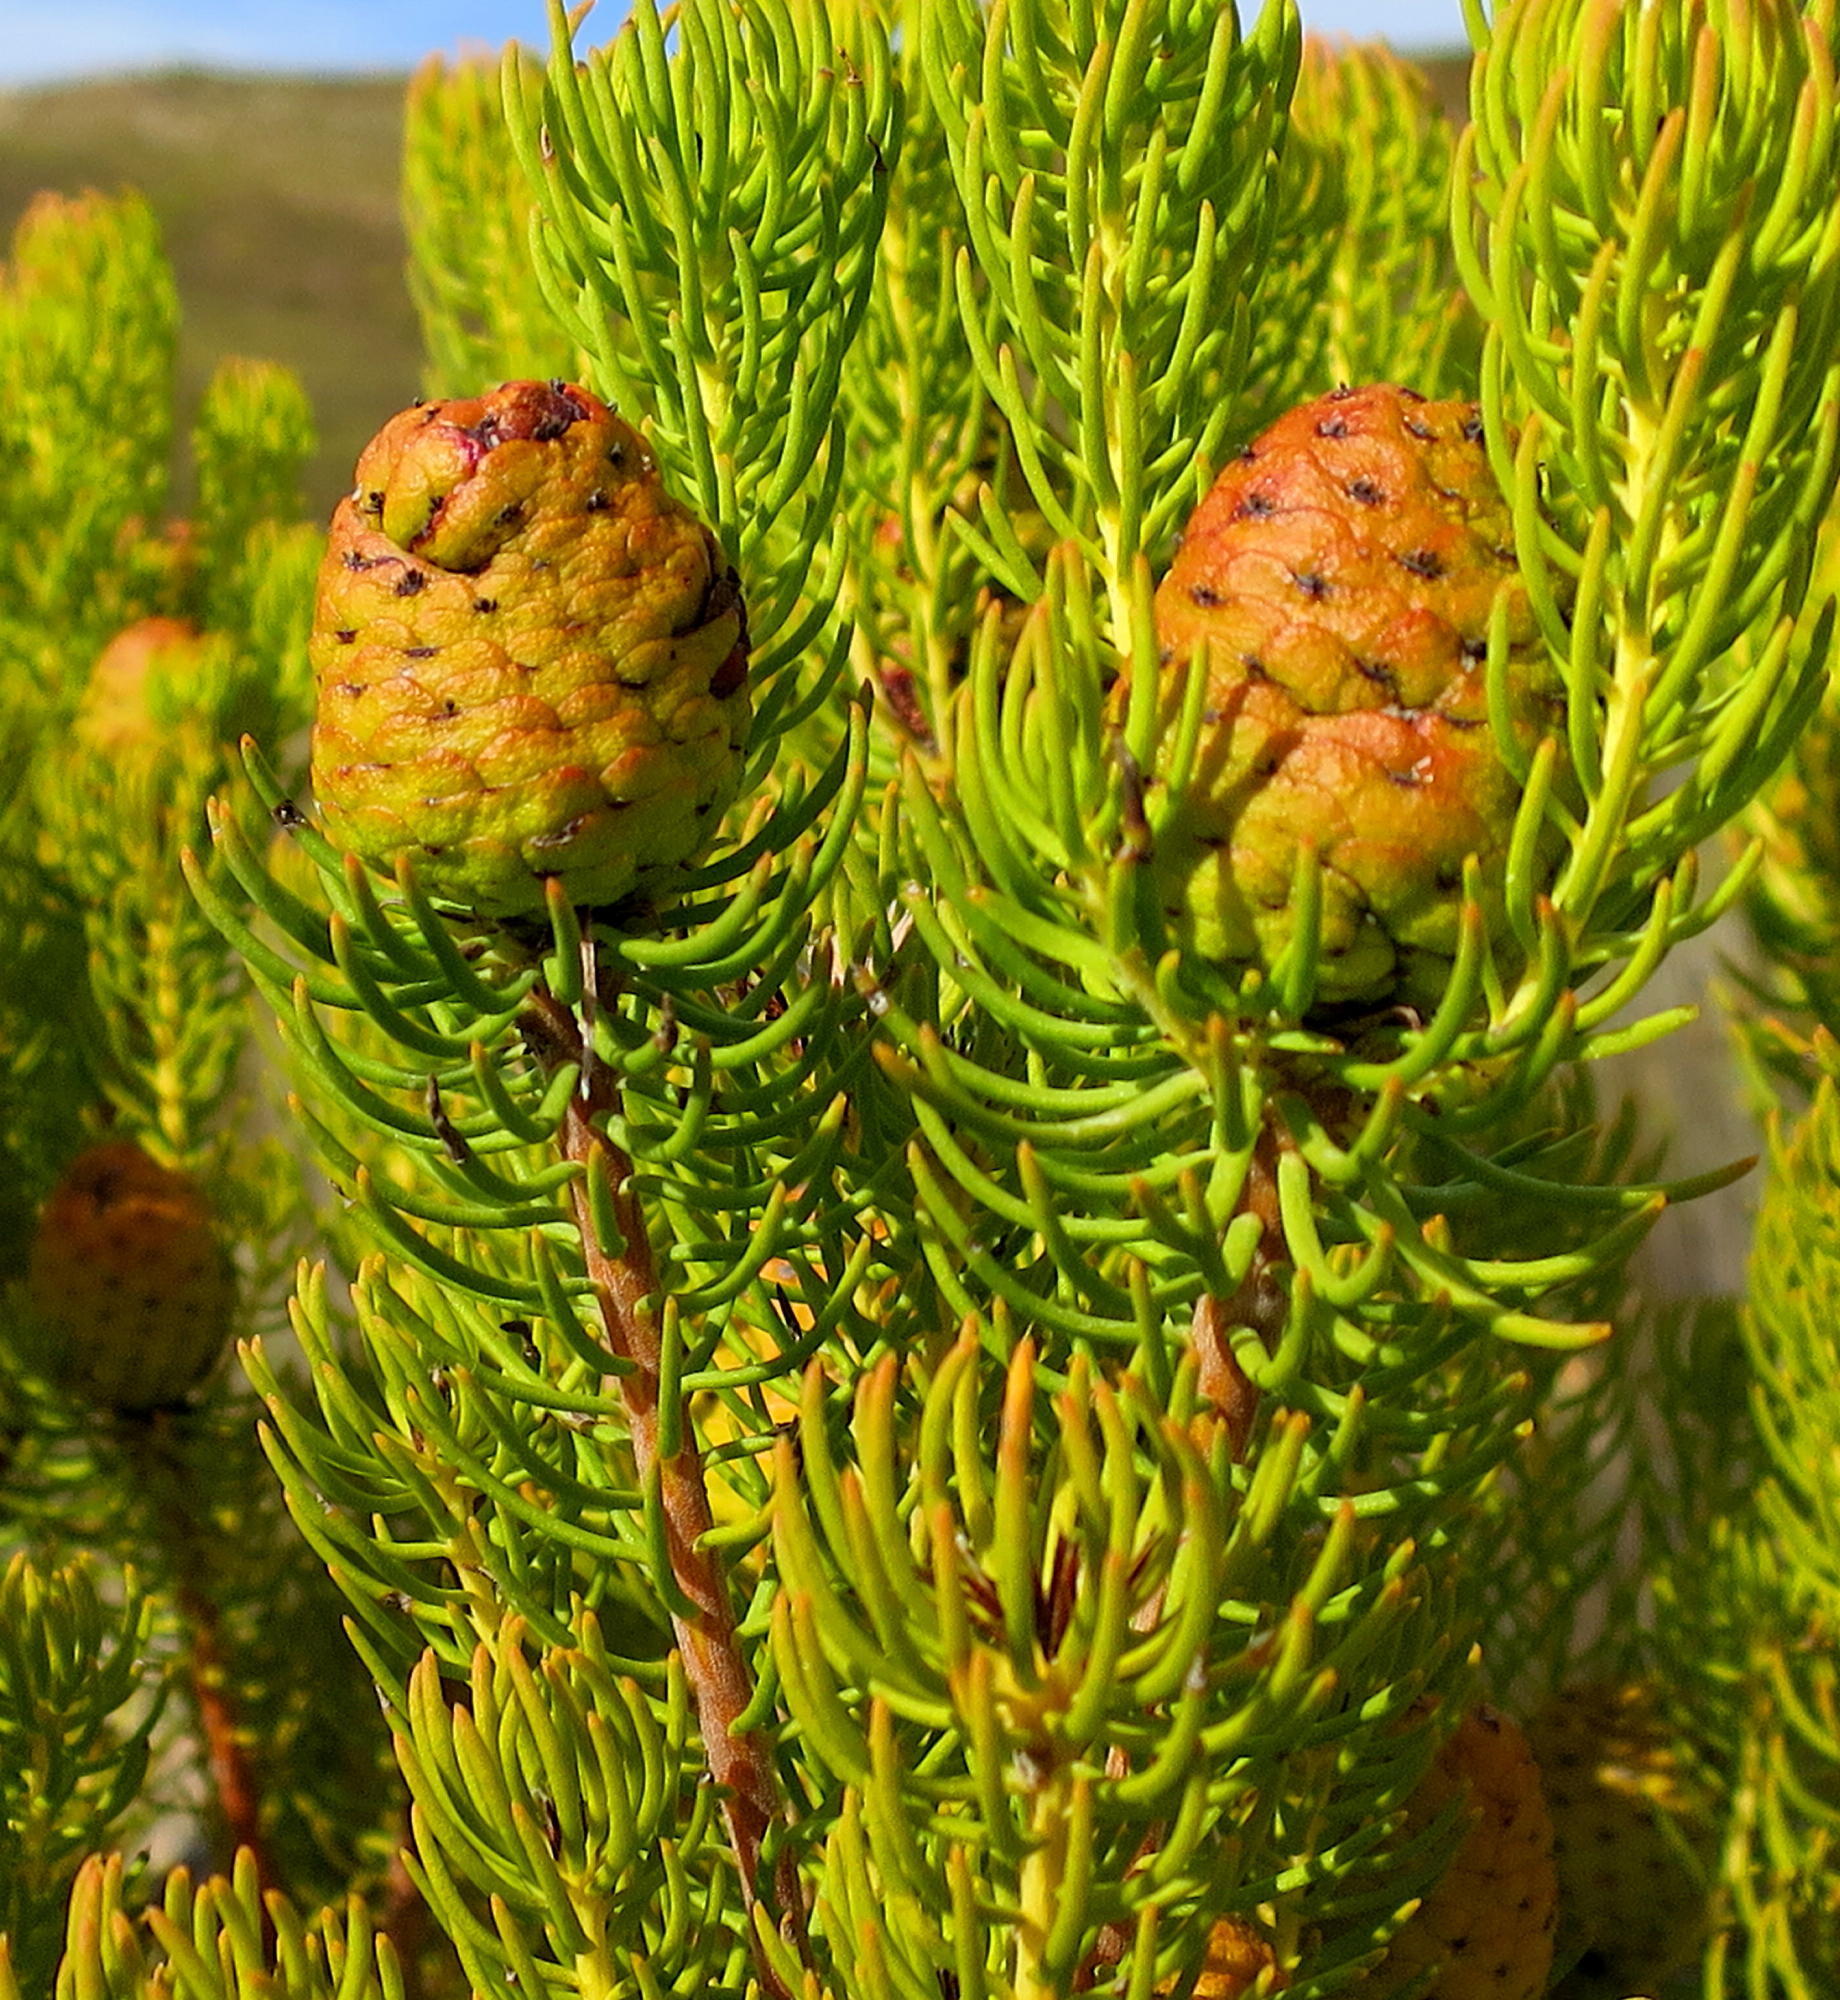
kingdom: Plantae
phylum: Tracheophyta
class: Magnoliopsida
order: Proteales
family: Proteaceae
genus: Leucadendron
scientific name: Leucadendron teretifolium
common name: Needle-leaf conebush
